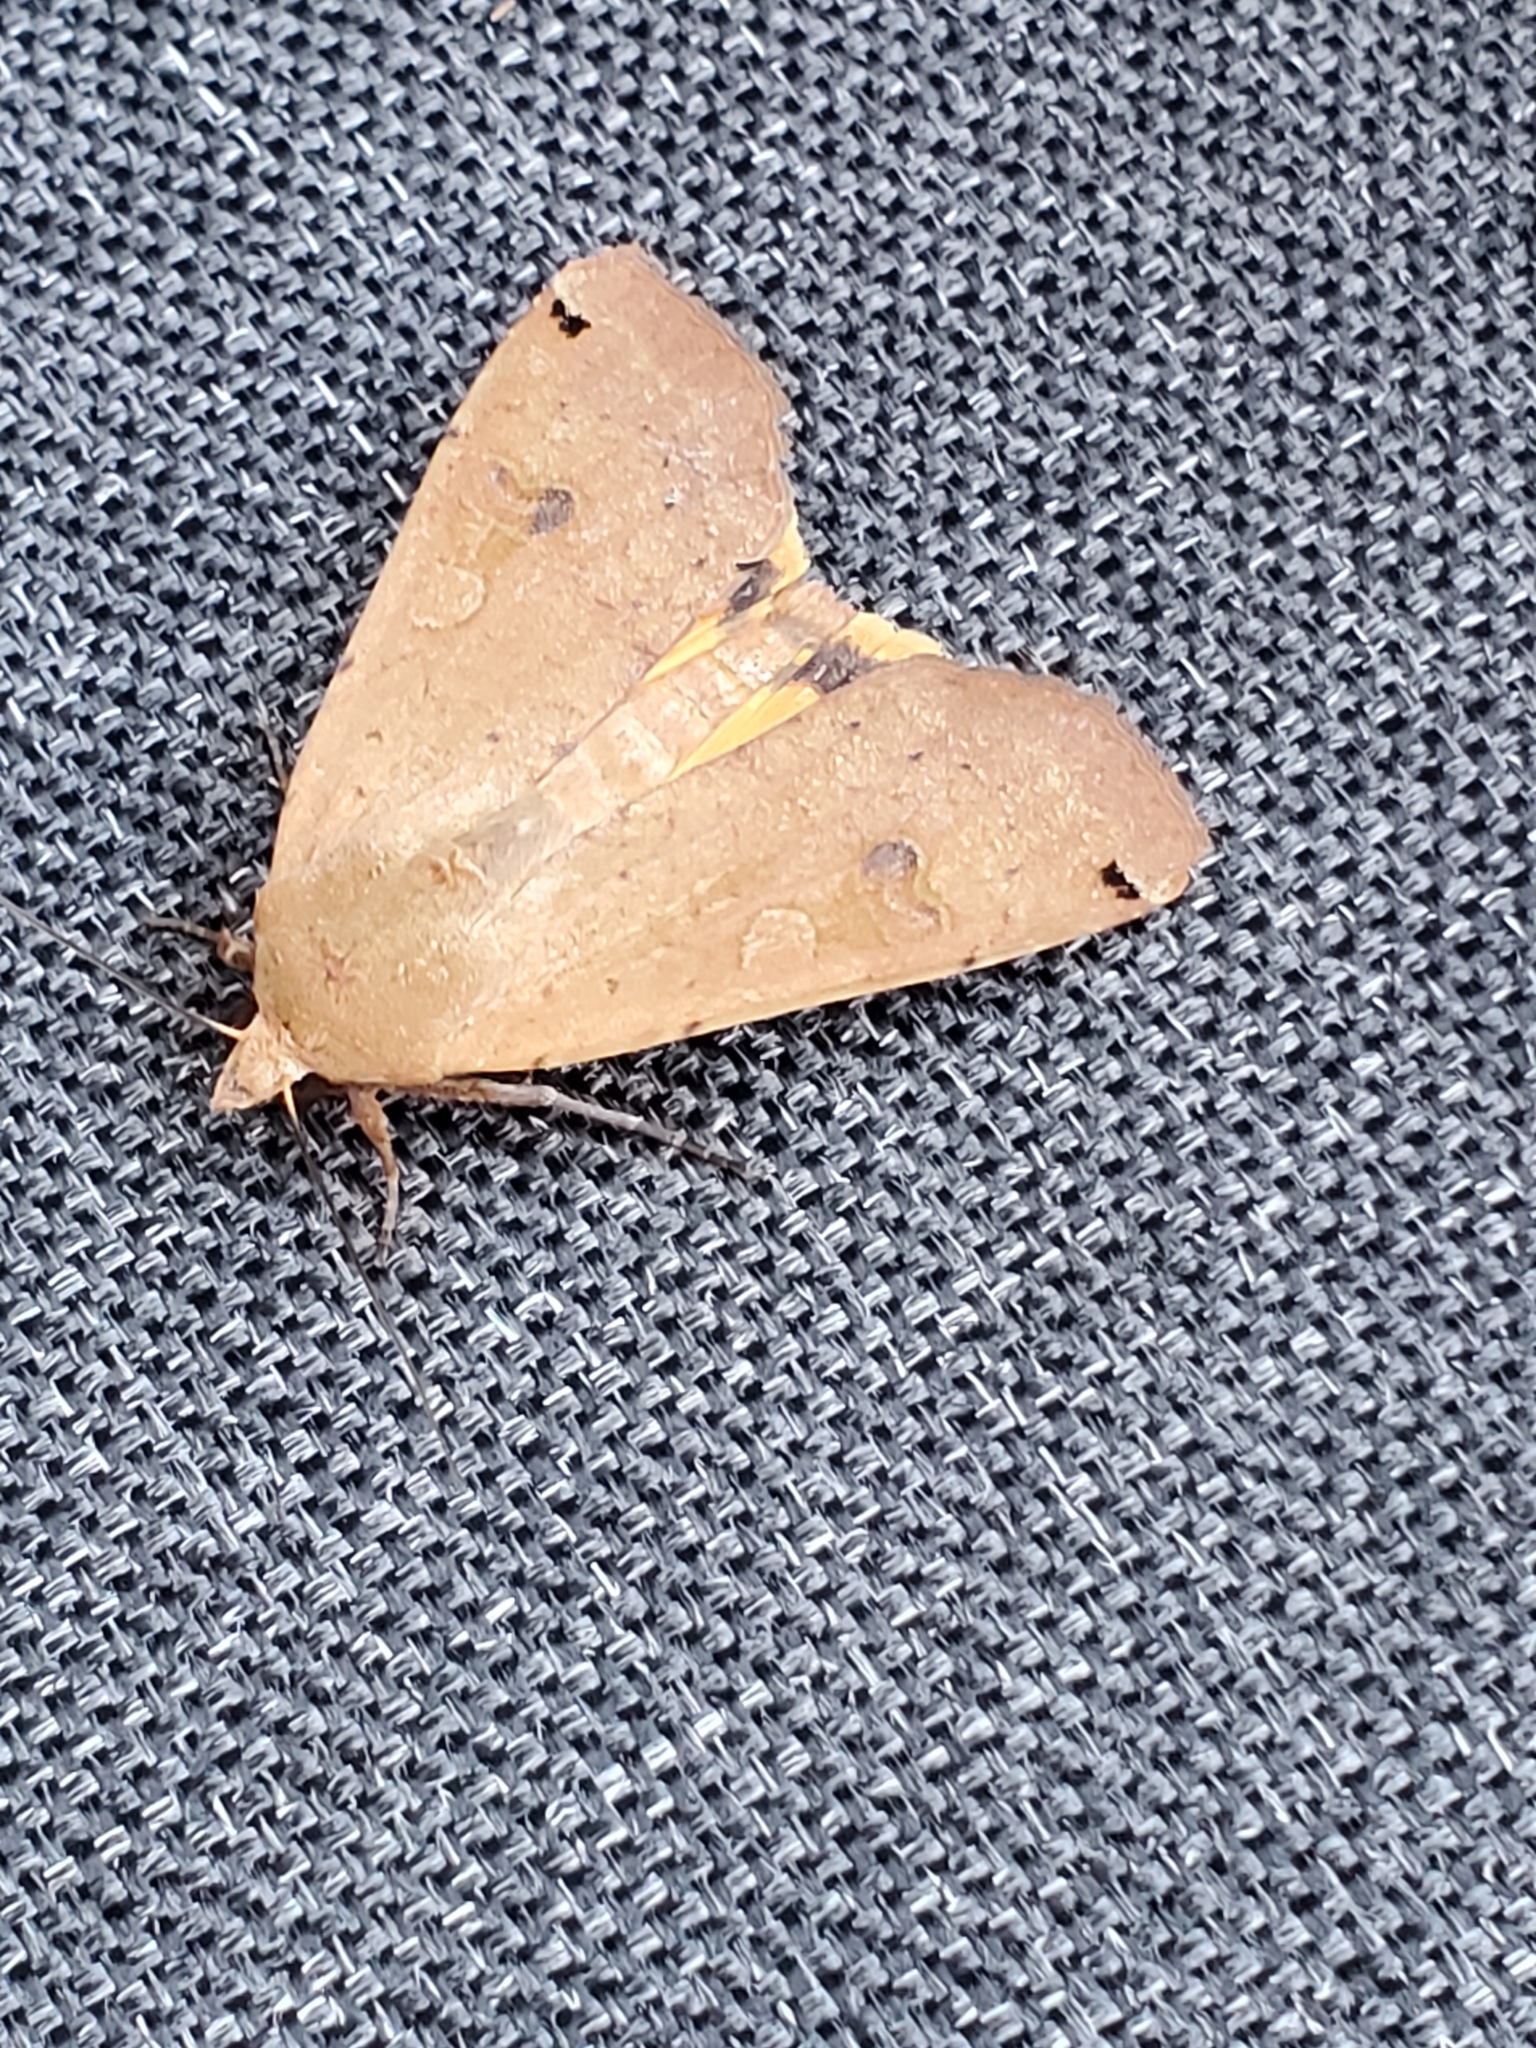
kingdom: Animalia
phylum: Arthropoda
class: Insecta
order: Lepidoptera
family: Noctuidae
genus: Noctua
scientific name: Noctua pronuba
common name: Large yellow underwing
